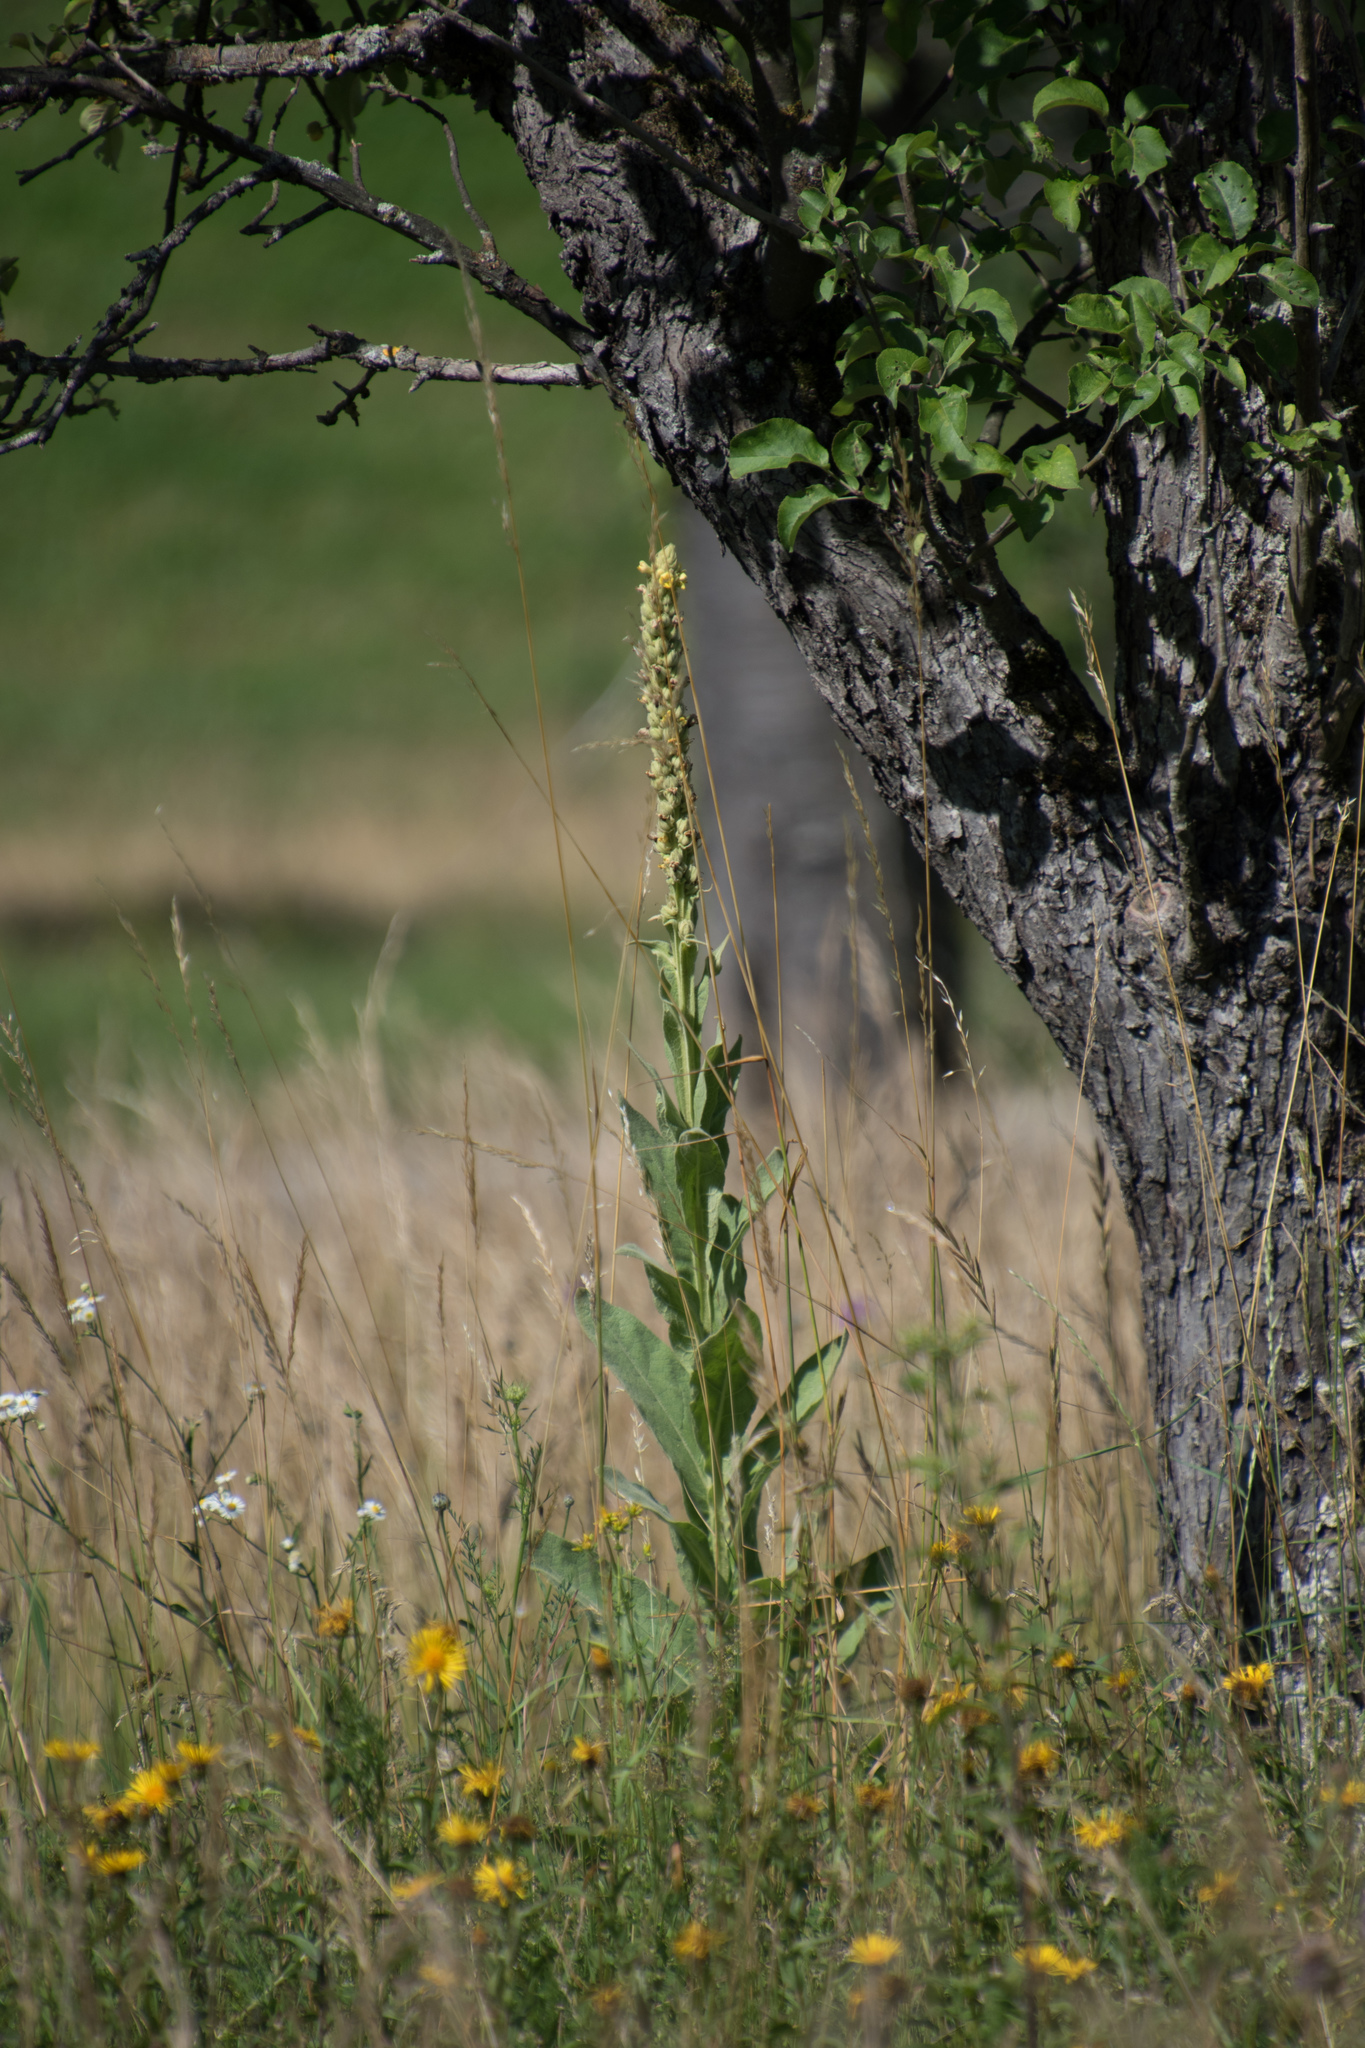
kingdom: Plantae
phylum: Tracheophyta
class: Magnoliopsida
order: Lamiales
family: Scrophulariaceae
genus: Verbascum
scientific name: Verbascum thapsus
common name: Common mullein
